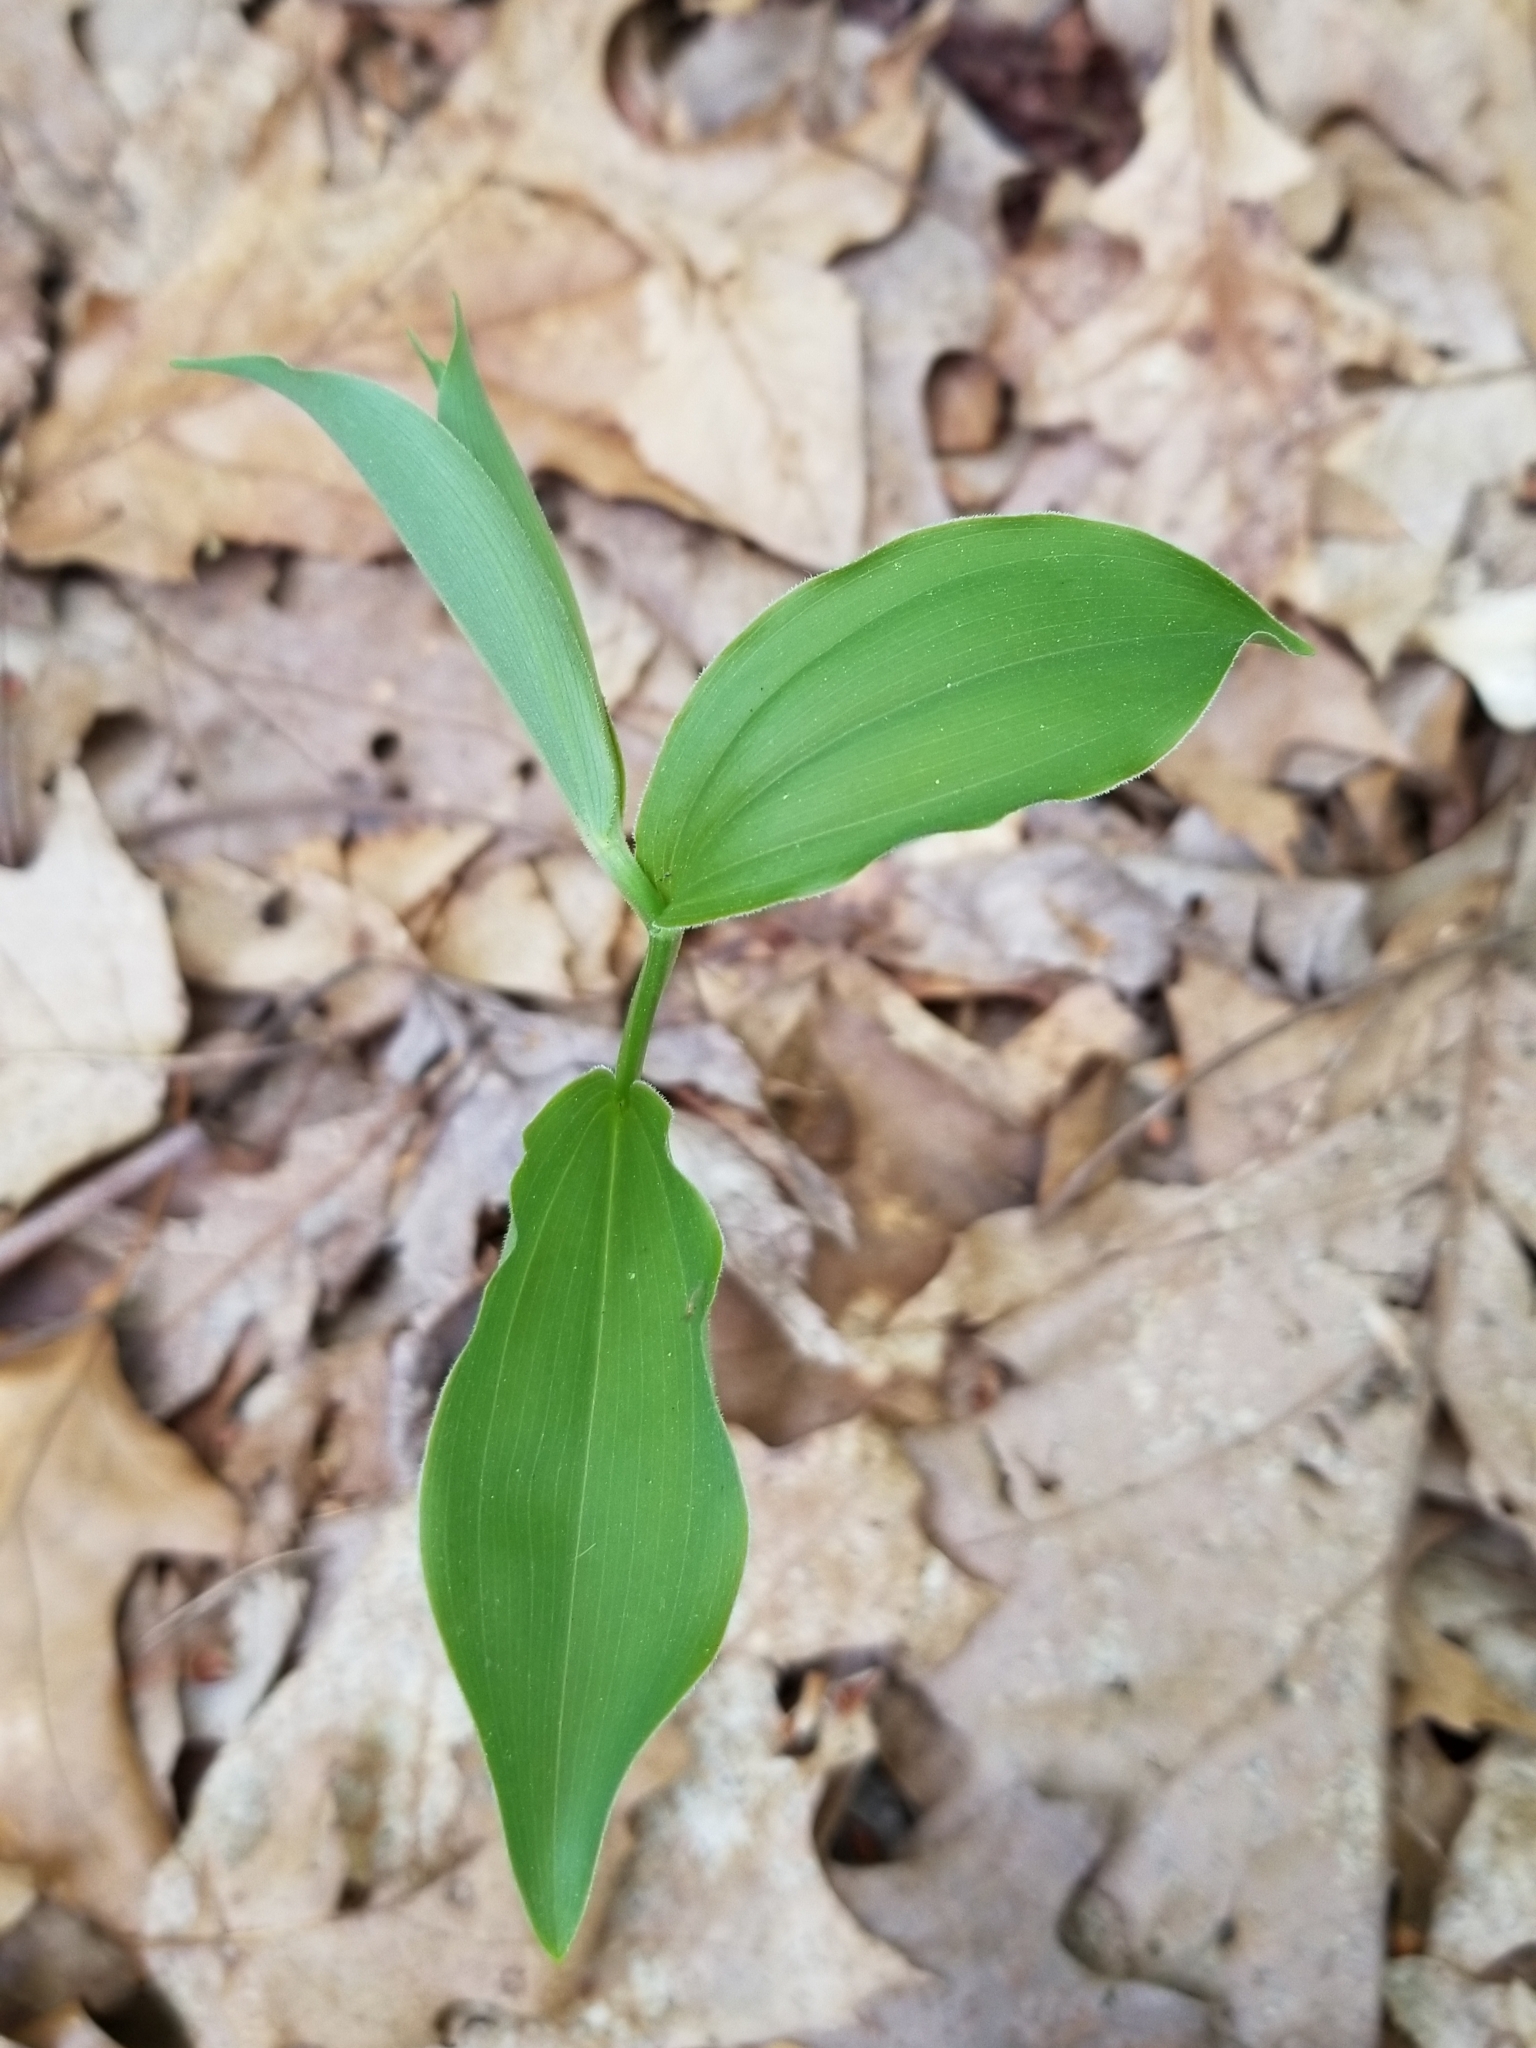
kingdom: Plantae
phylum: Tracheophyta
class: Liliopsida
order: Asparagales
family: Asparagaceae
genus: Maianthemum
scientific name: Maianthemum racemosum
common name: False spikenard
